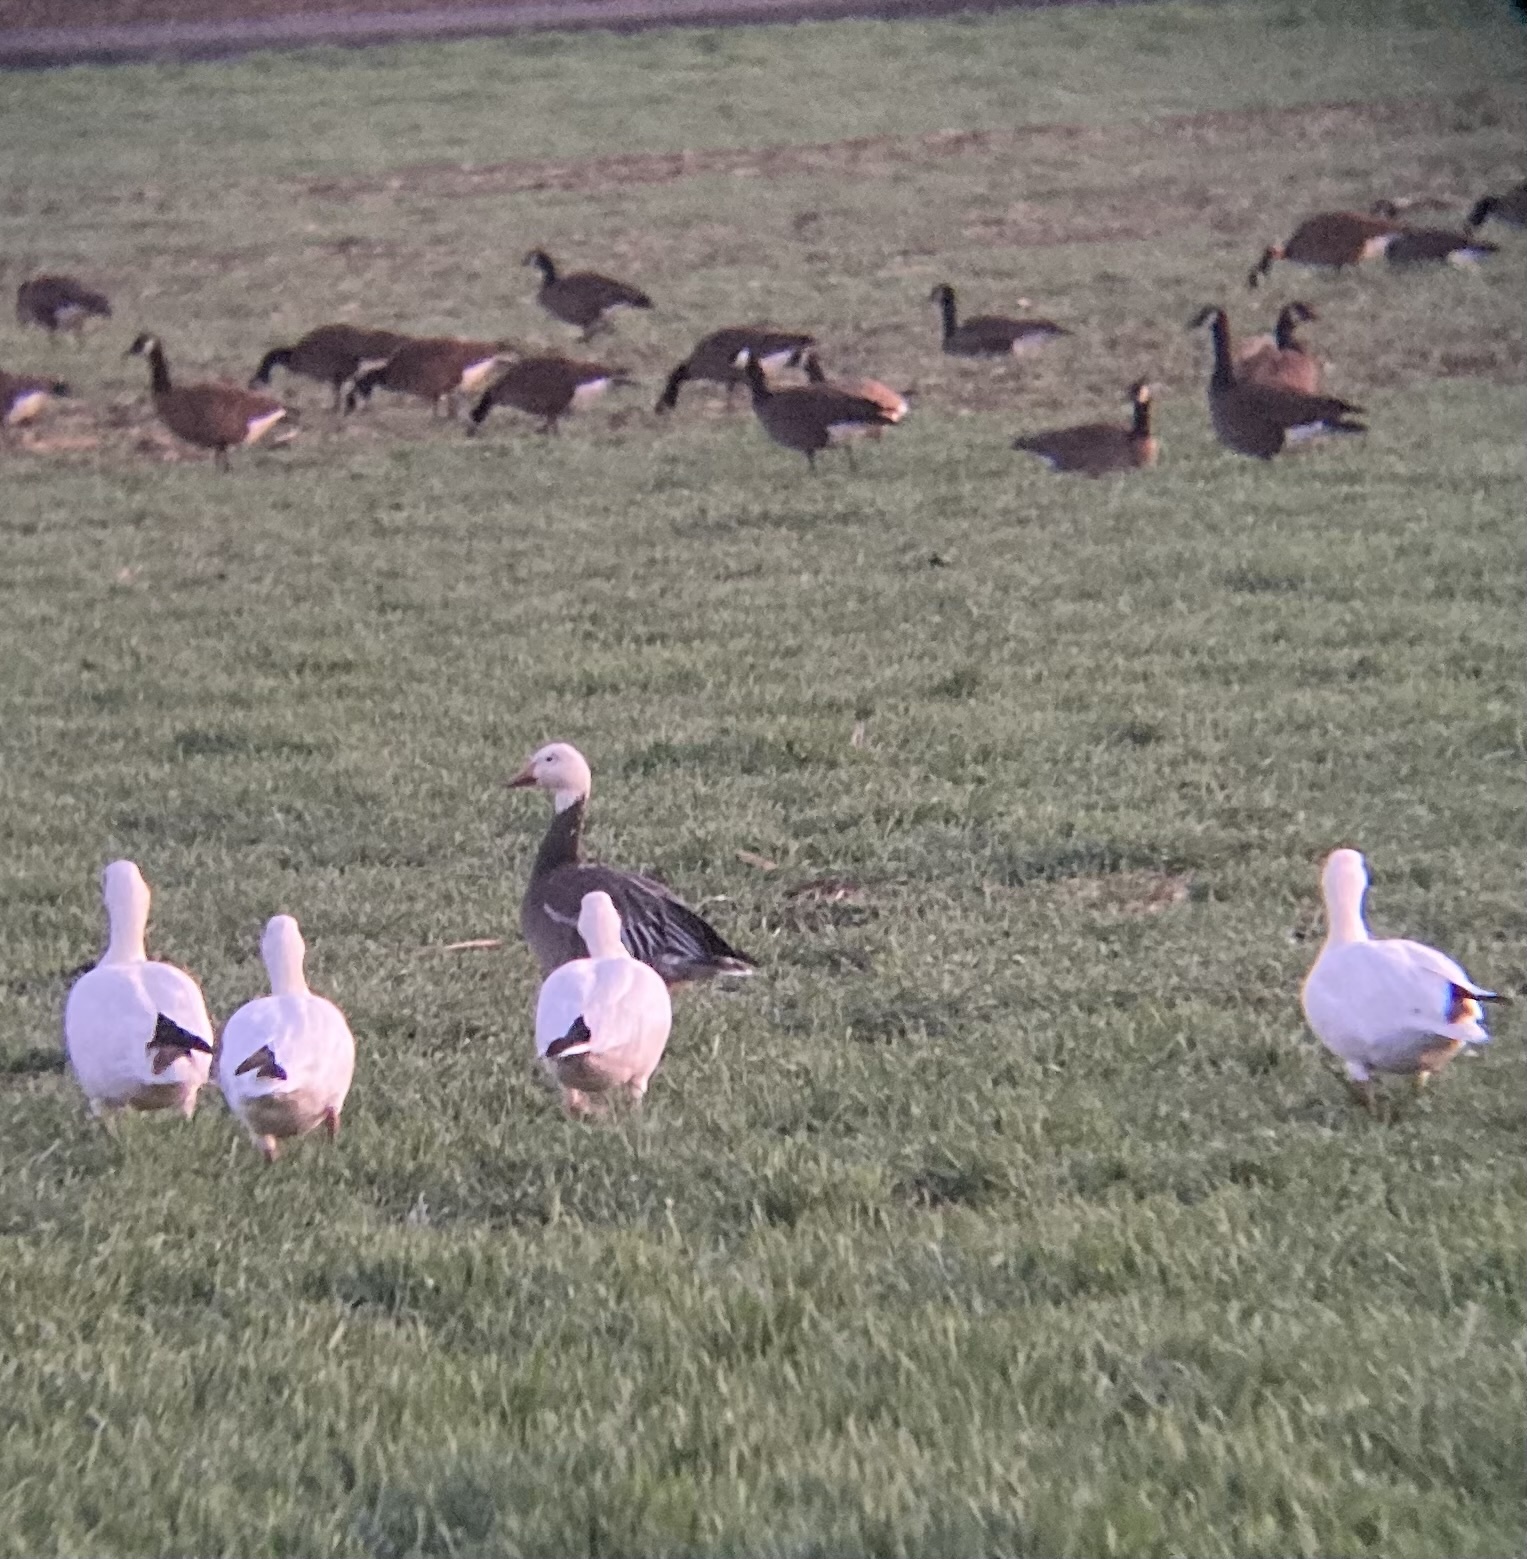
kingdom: Animalia
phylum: Chordata
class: Aves
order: Anseriformes
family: Anatidae
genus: Anser
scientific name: Anser caerulescens
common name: Snow goose
